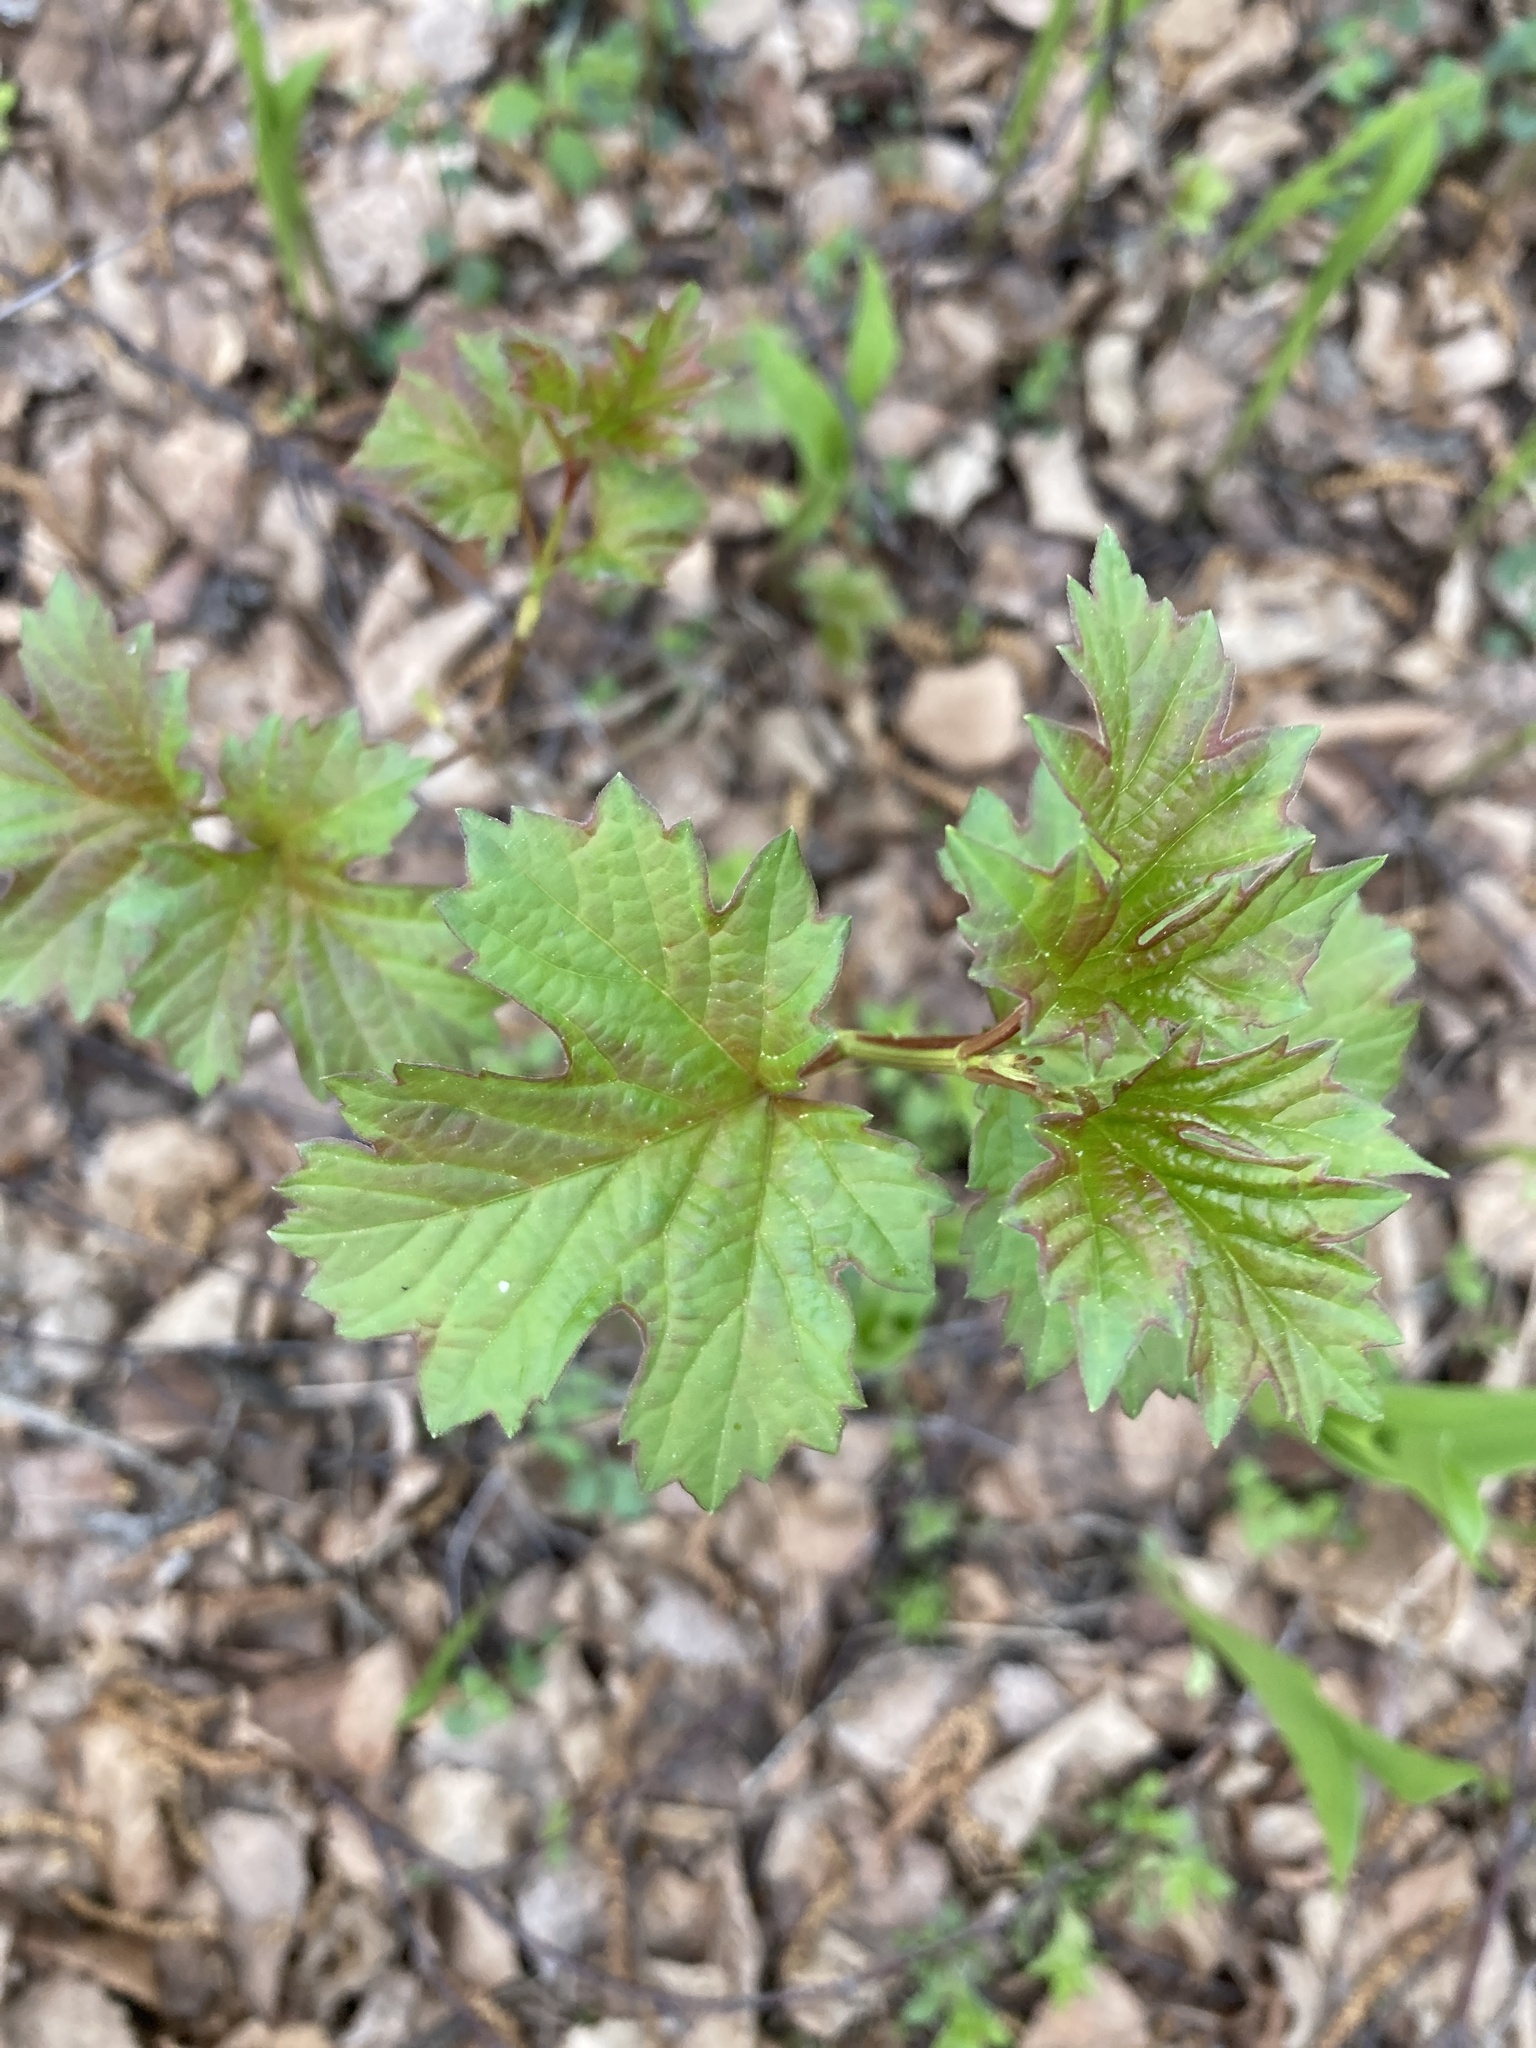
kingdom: Plantae
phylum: Tracheophyta
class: Magnoliopsida
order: Dipsacales
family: Viburnaceae
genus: Viburnum
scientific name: Viburnum opulus
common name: Guelder-rose
